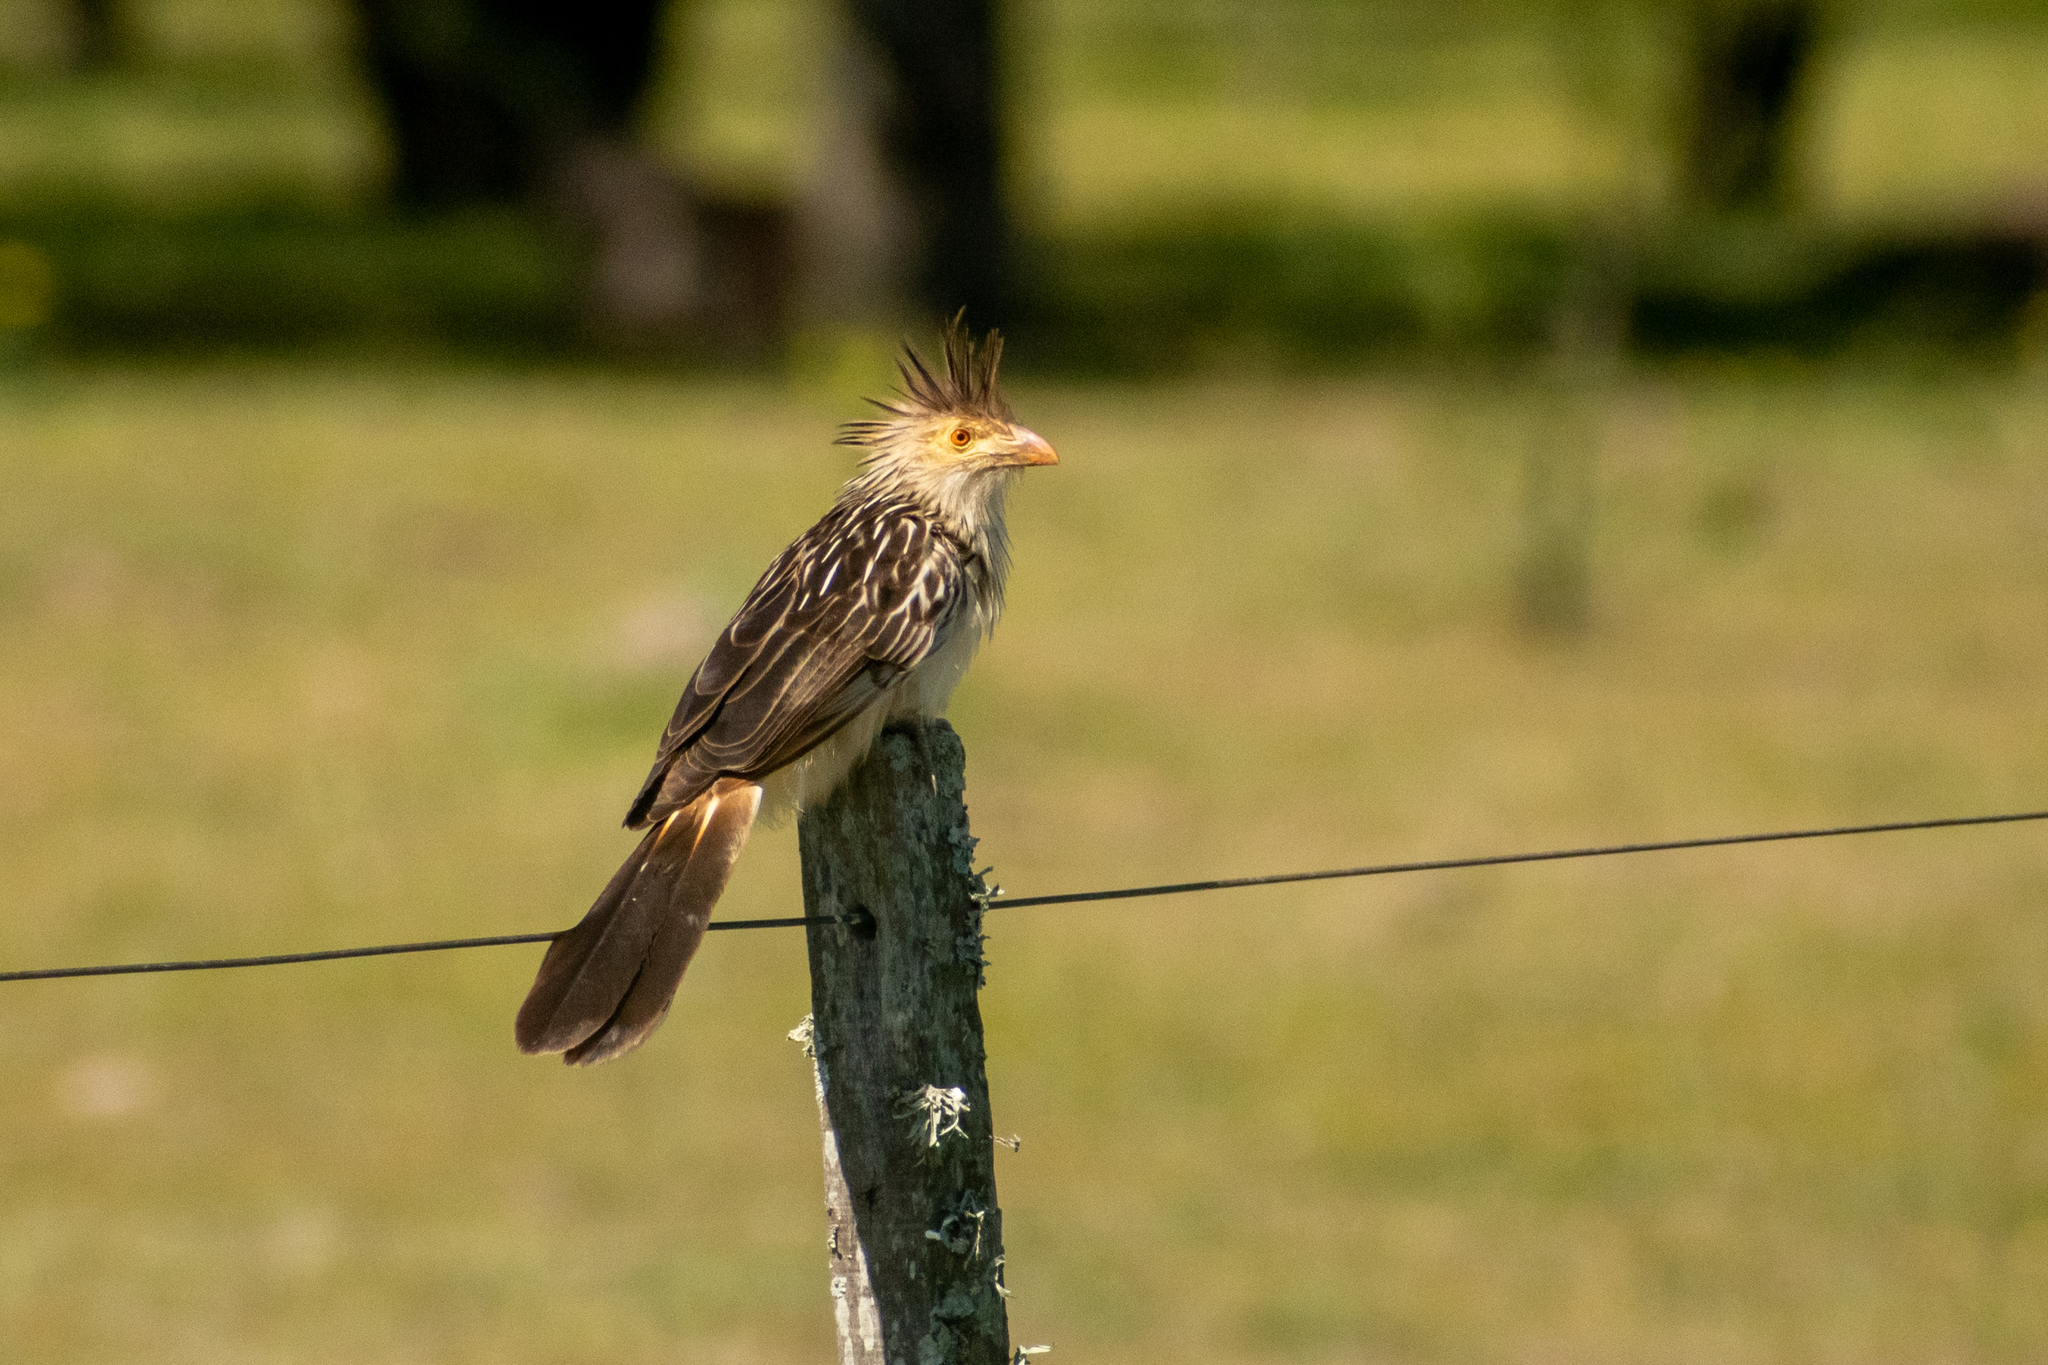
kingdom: Animalia
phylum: Chordata
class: Aves
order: Cuculiformes
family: Cuculidae
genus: Guira
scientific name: Guira guira
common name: Guira cuckoo
